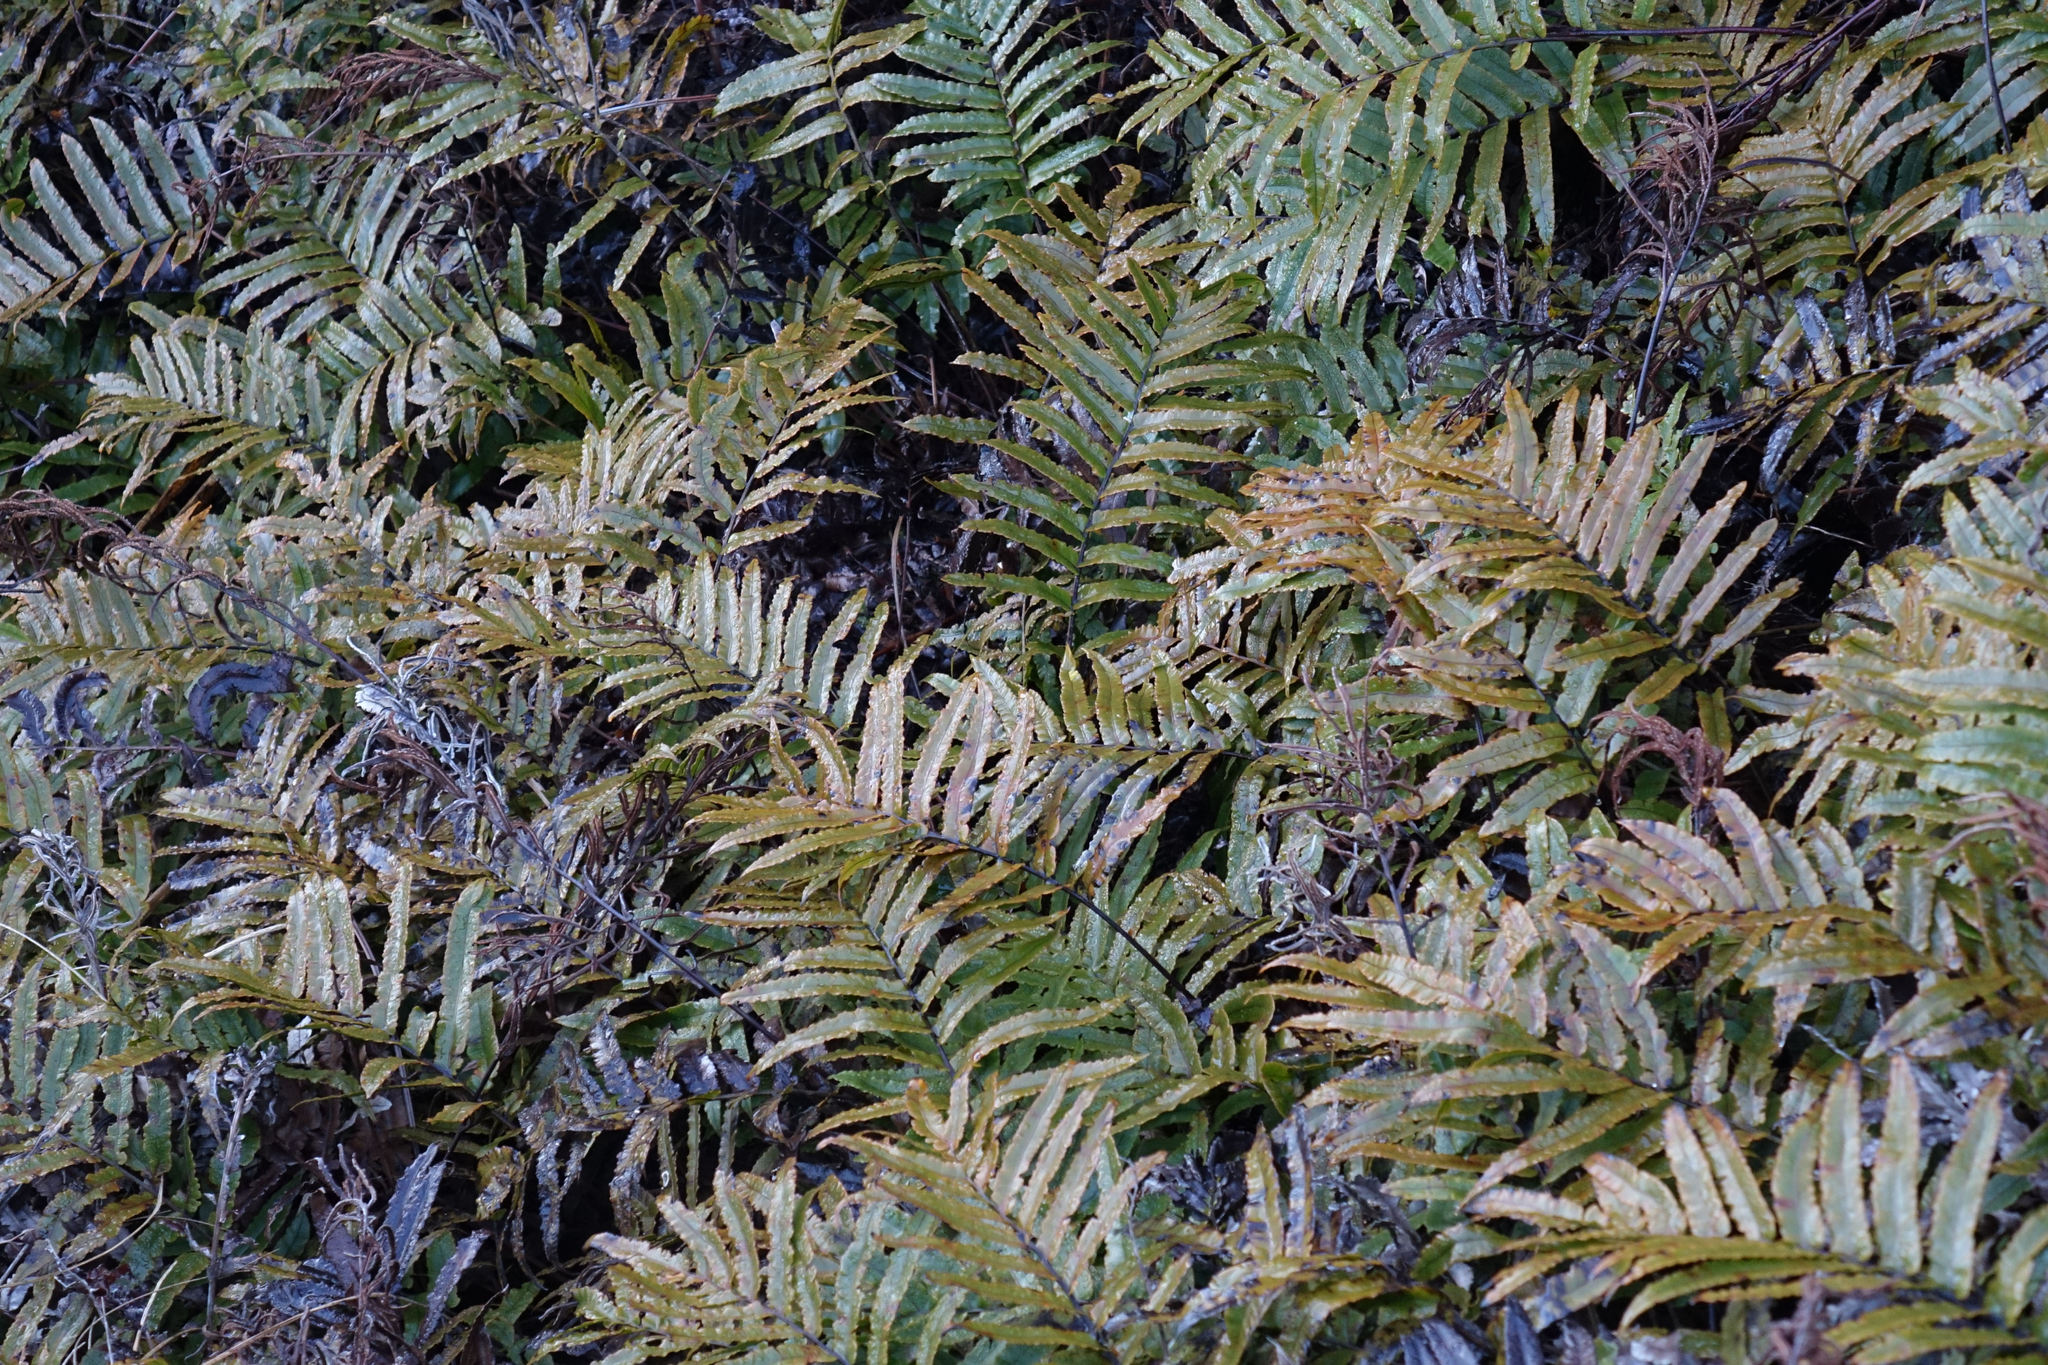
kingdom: Plantae
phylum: Tracheophyta
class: Polypodiopsida
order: Polypodiales
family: Blechnaceae
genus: Parablechnum
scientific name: Parablechnum montanum
